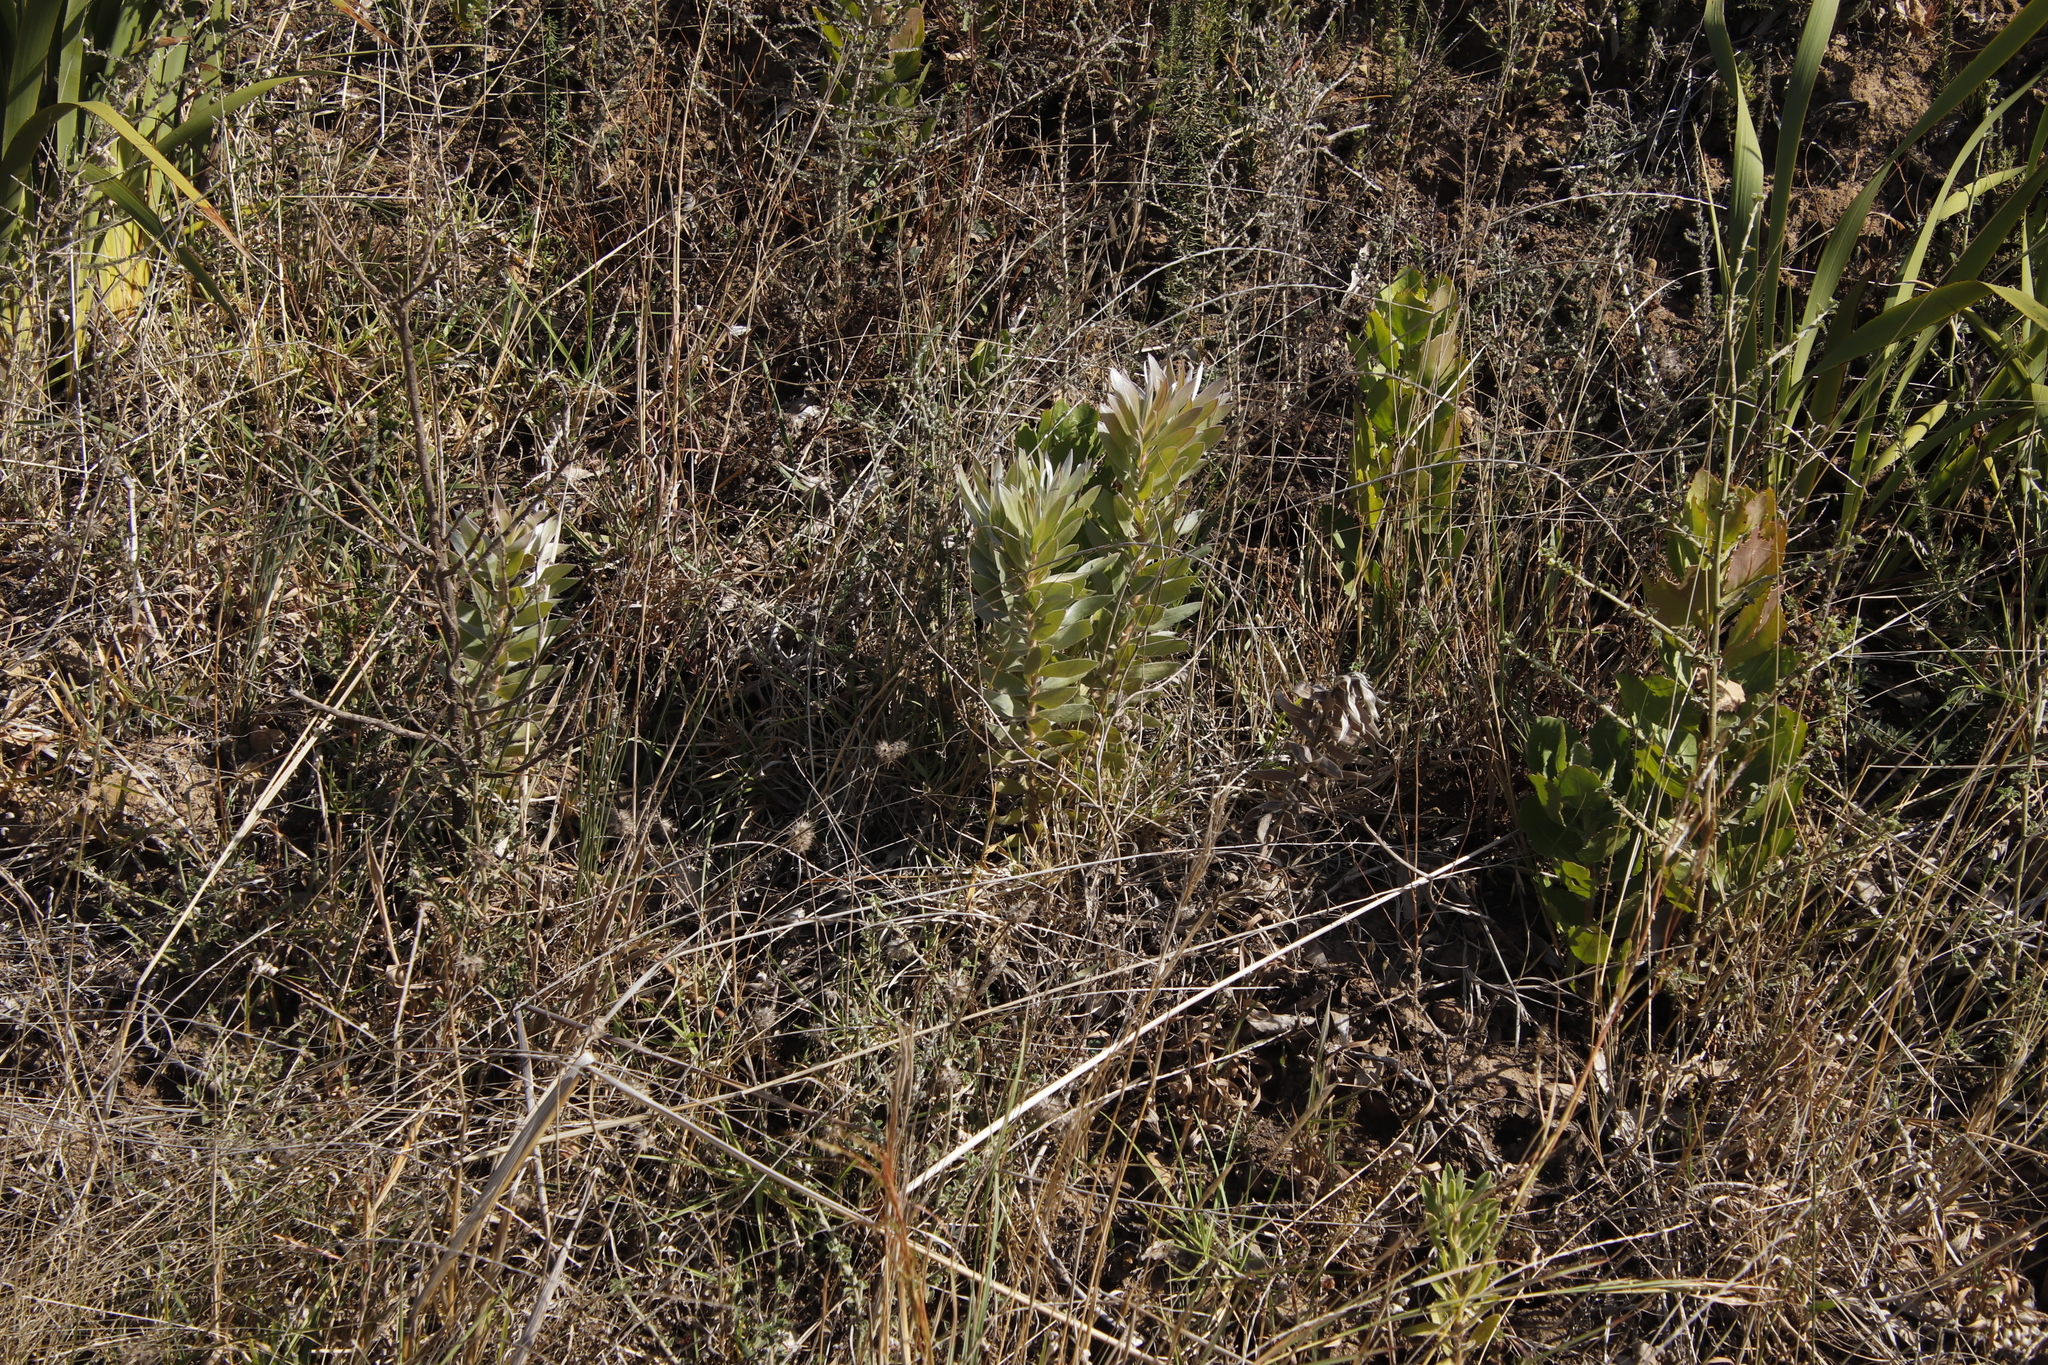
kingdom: Plantae
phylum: Tracheophyta
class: Magnoliopsida
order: Proteales
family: Proteaceae
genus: Leucadendron
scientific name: Leucadendron argenteum
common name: Cape silver tree
